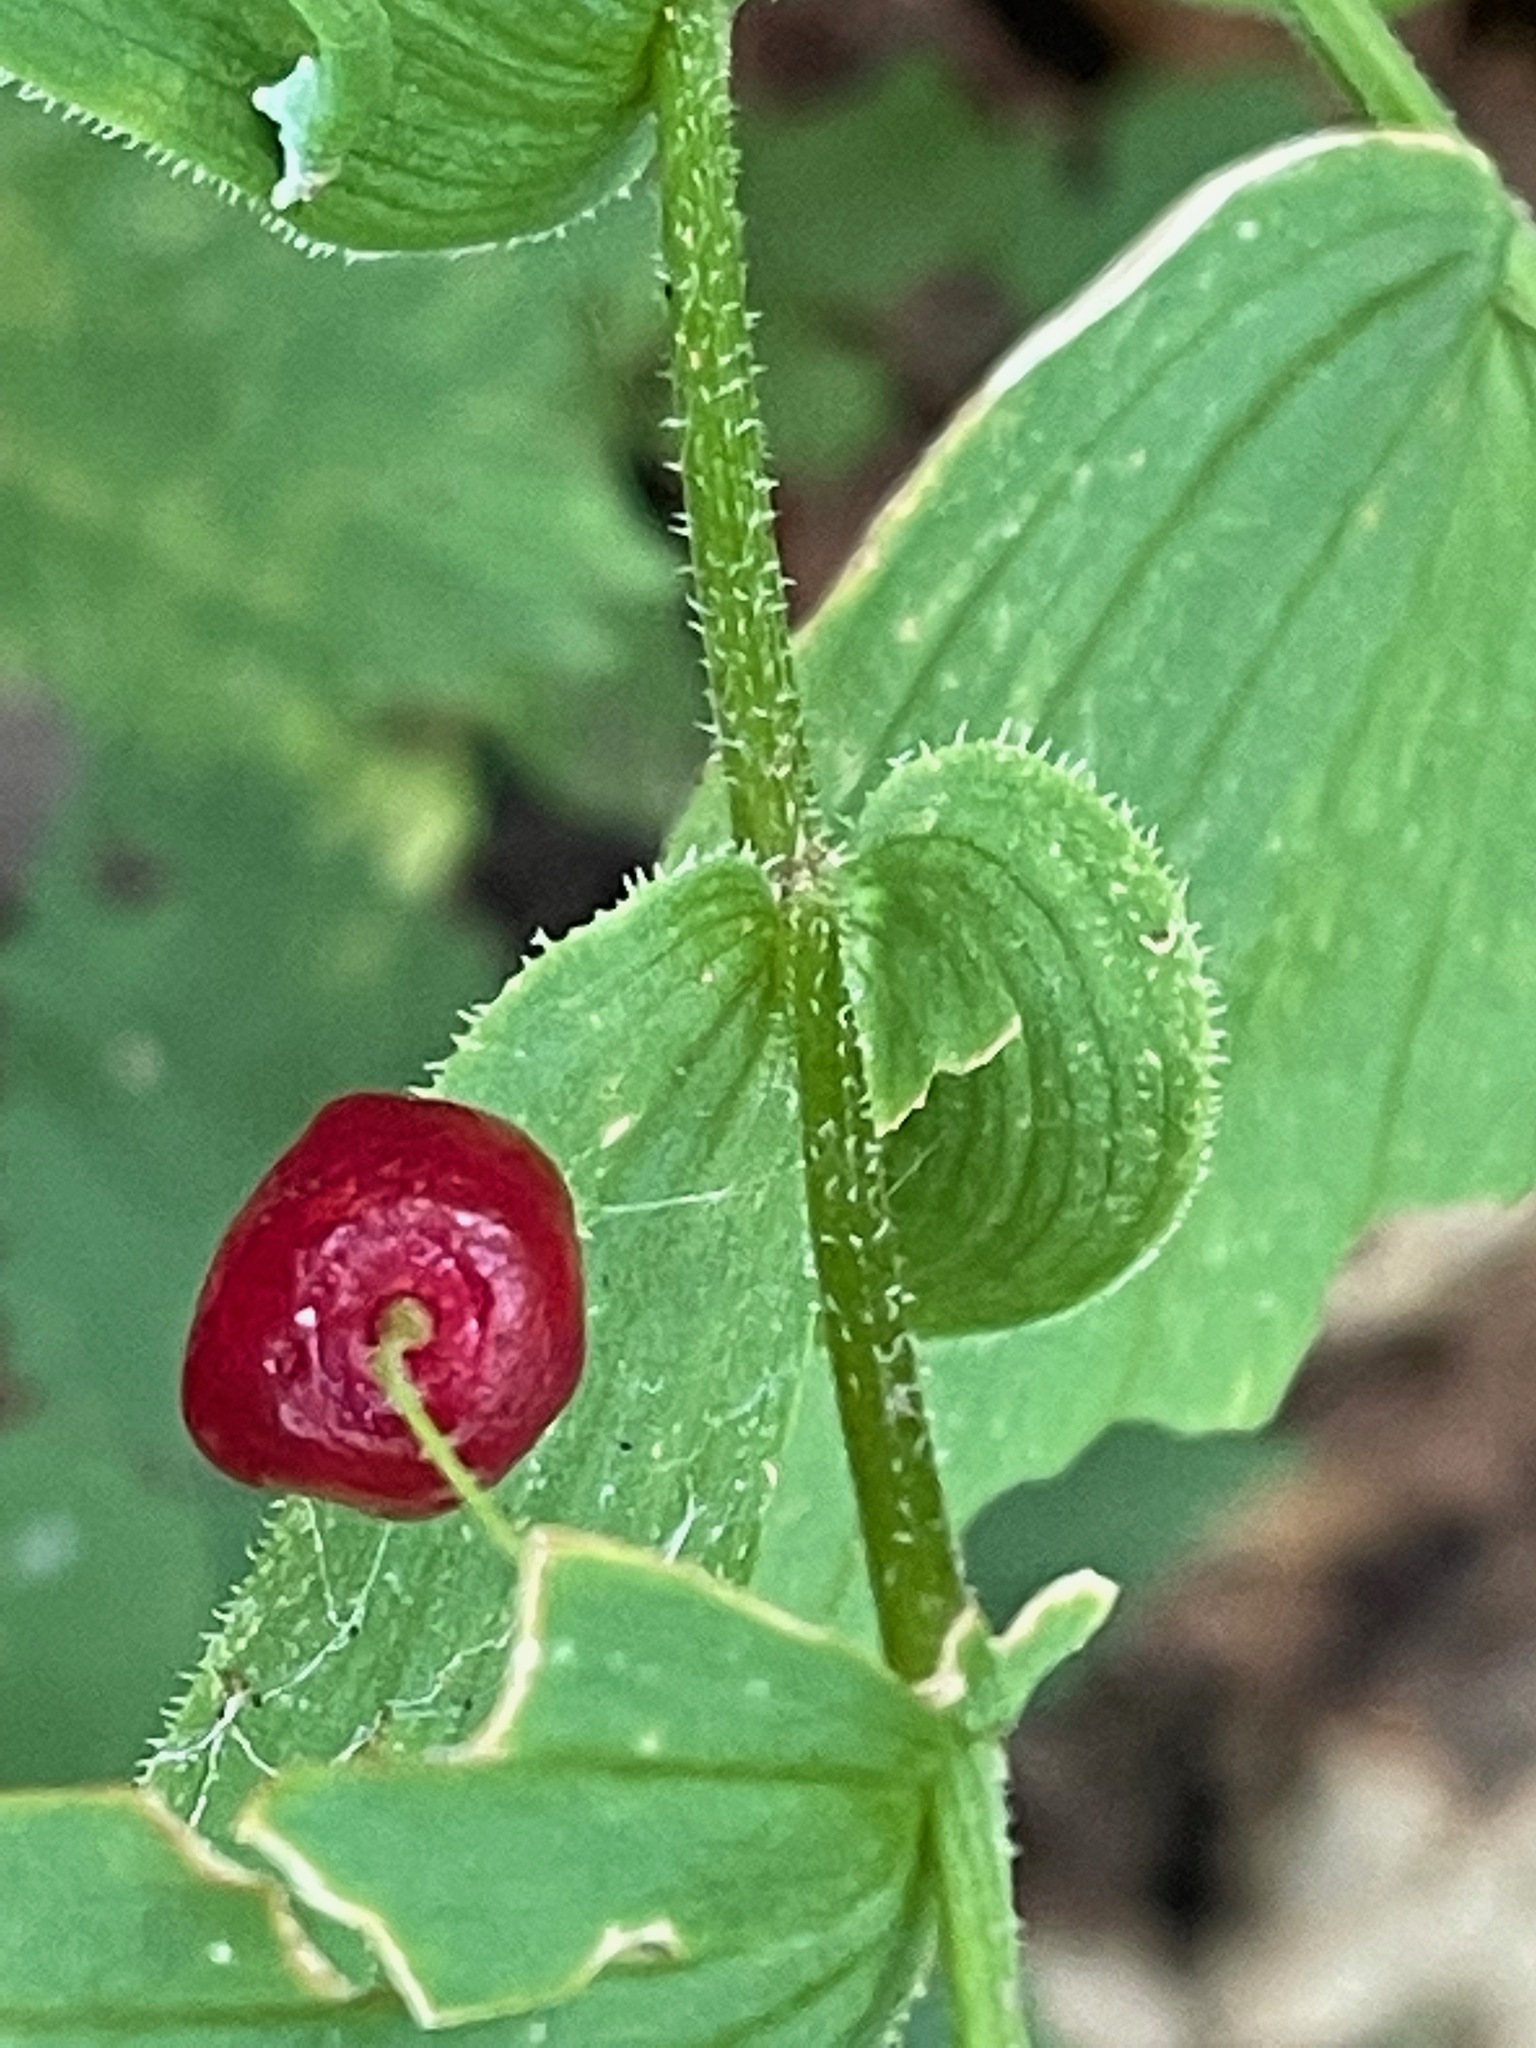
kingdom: Plantae
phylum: Tracheophyta
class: Liliopsida
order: Liliales
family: Liliaceae
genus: Streptopus
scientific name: Streptopus lanceolatus
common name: Rose mandarin
